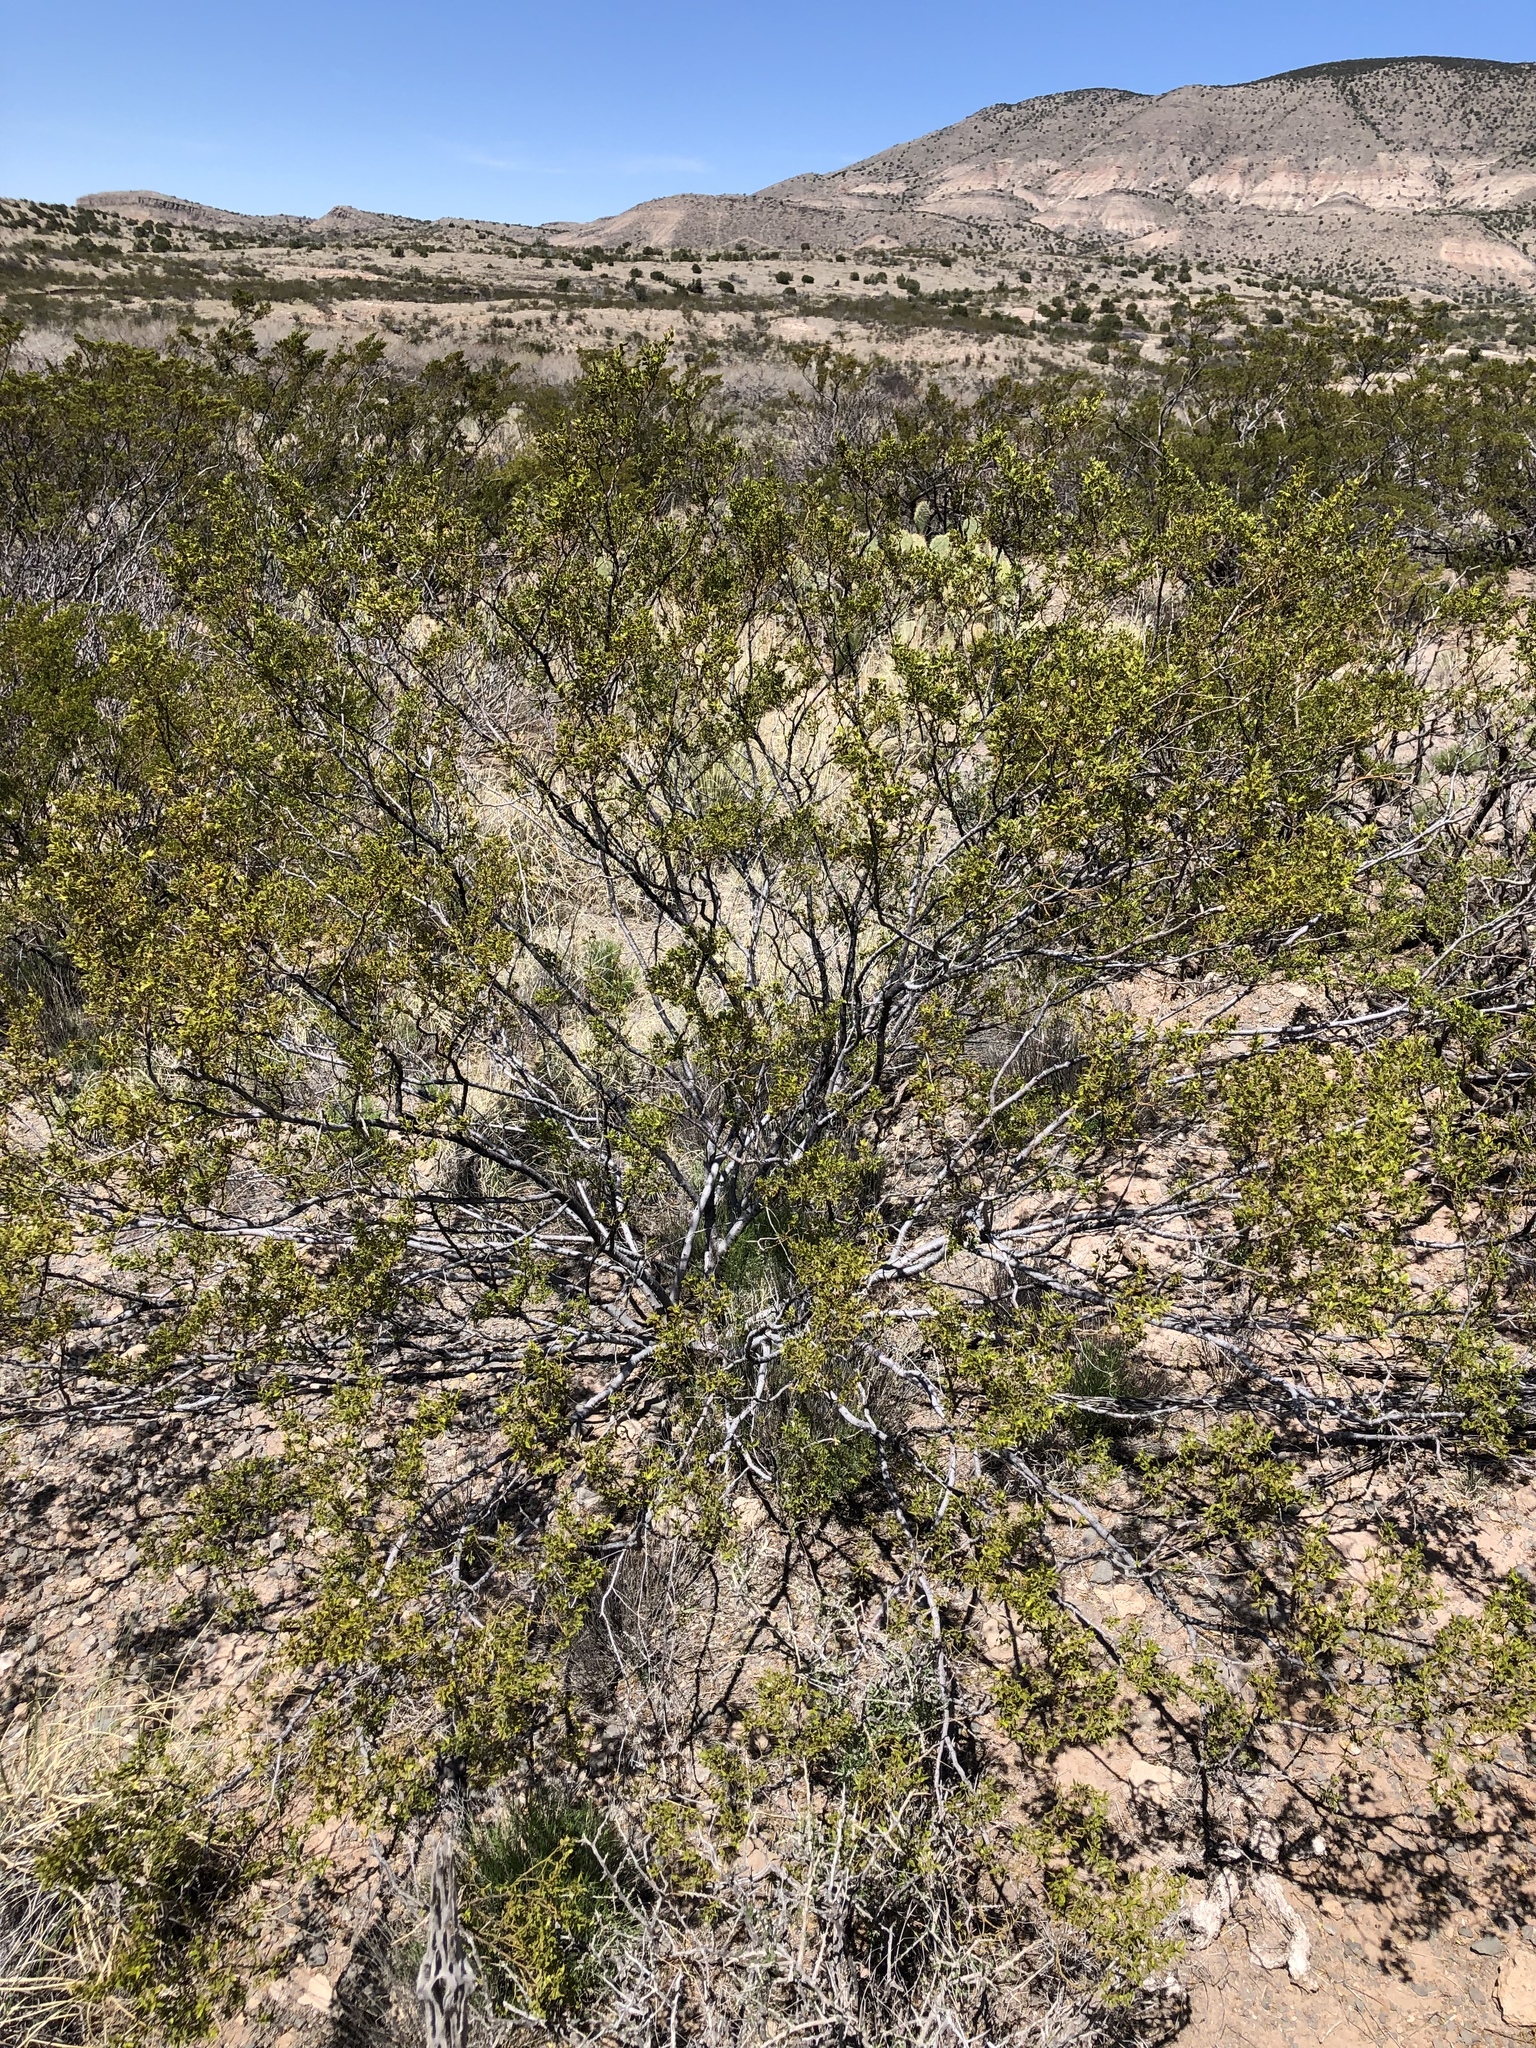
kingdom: Plantae
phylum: Tracheophyta
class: Magnoliopsida
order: Zygophyllales
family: Zygophyllaceae
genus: Larrea
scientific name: Larrea tridentata
